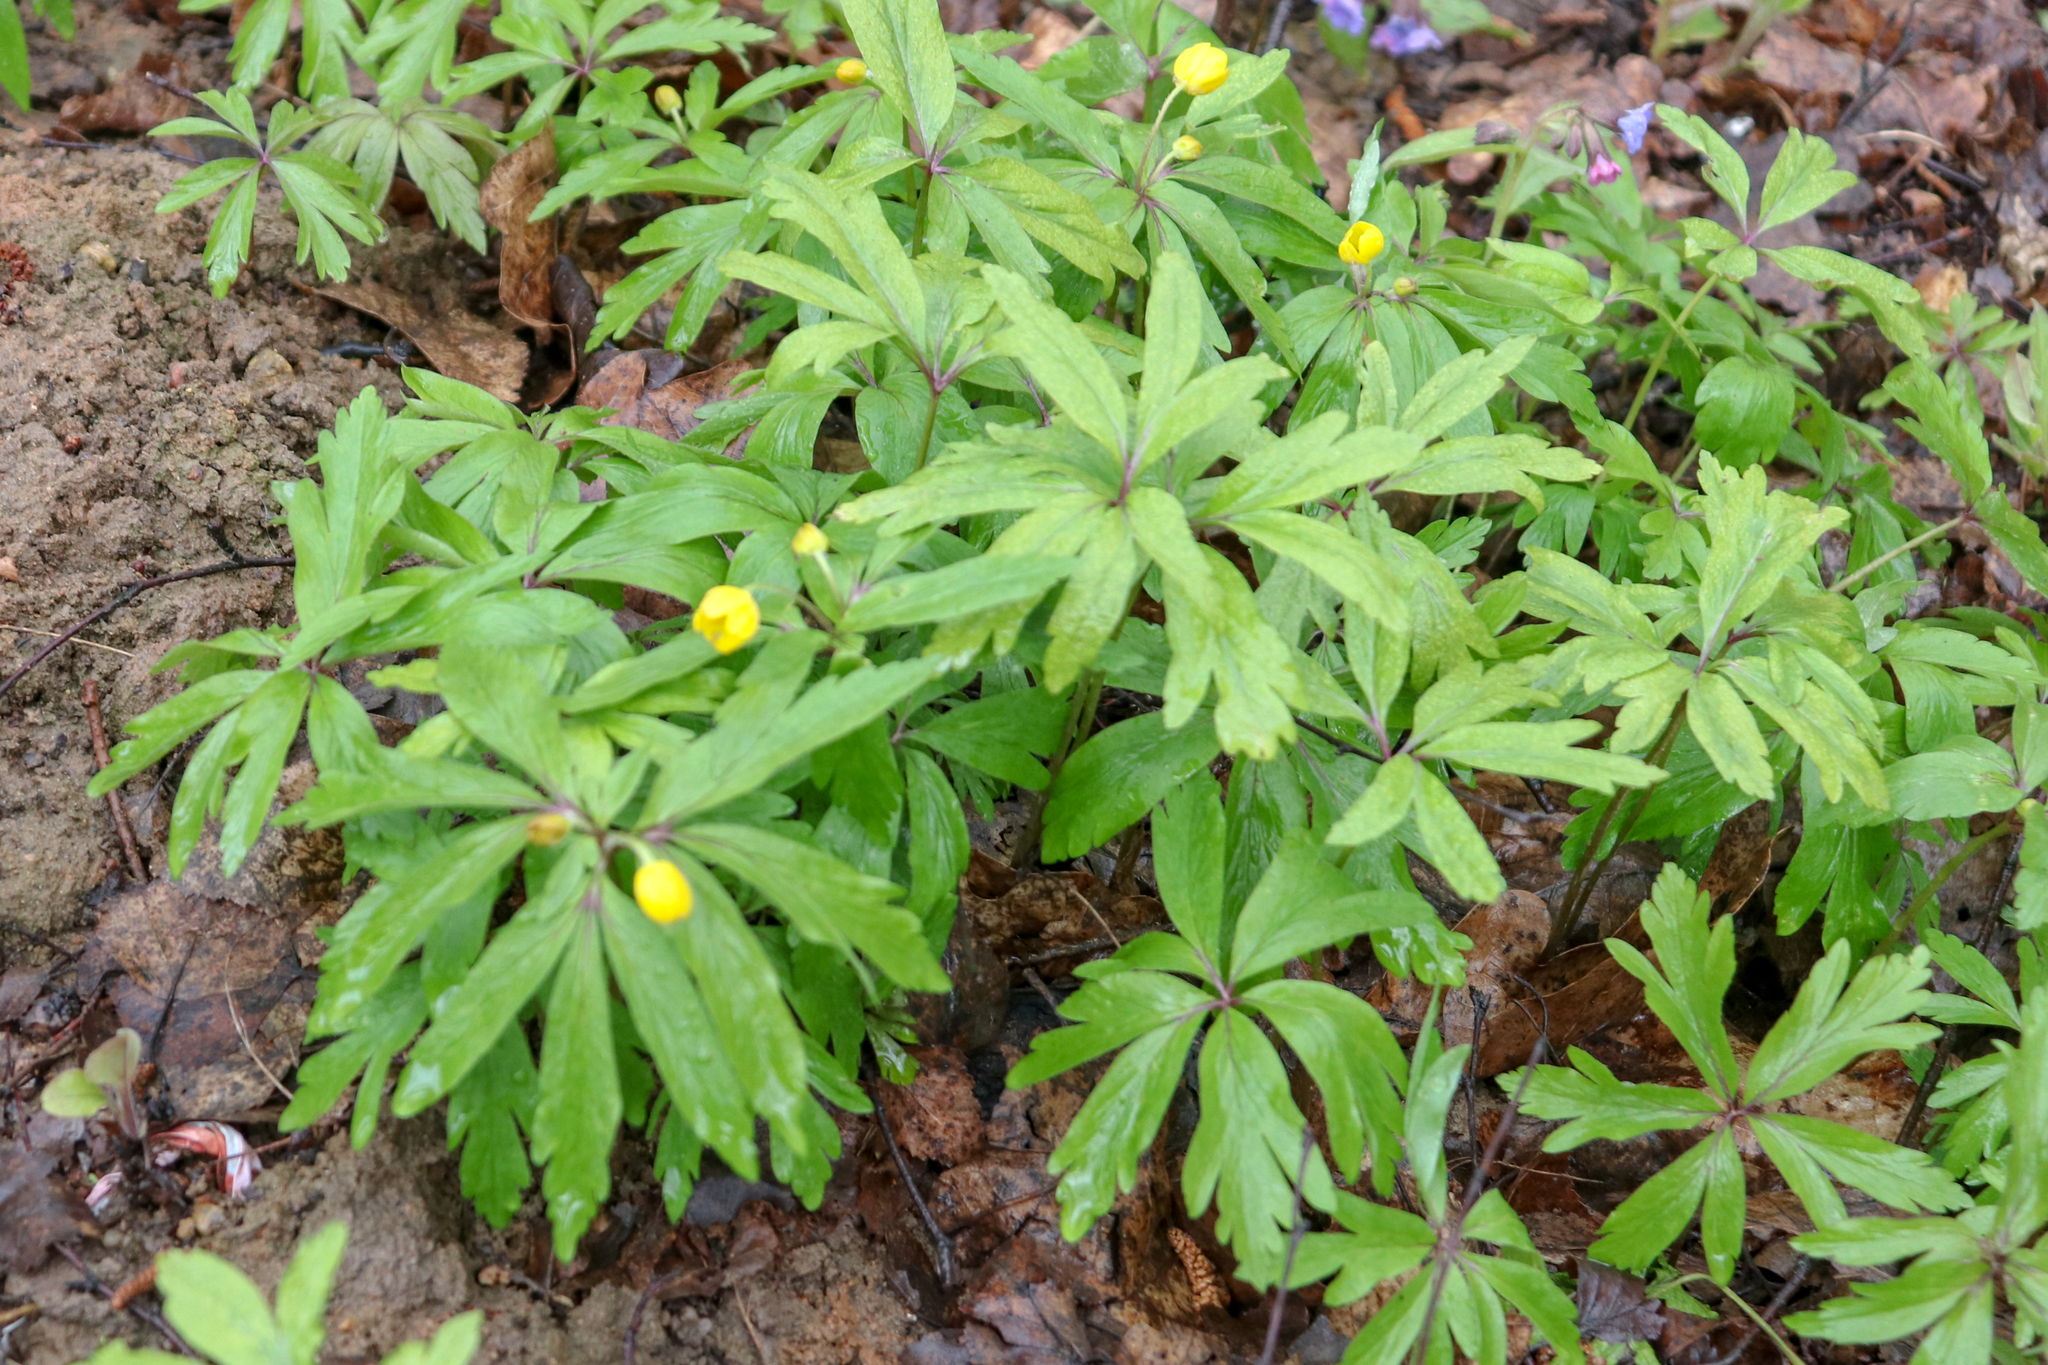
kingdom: Plantae
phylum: Tracheophyta
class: Magnoliopsida
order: Ranunculales
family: Ranunculaceae
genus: Anemone
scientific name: Anemone ranunculoides
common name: Yellow anemone
